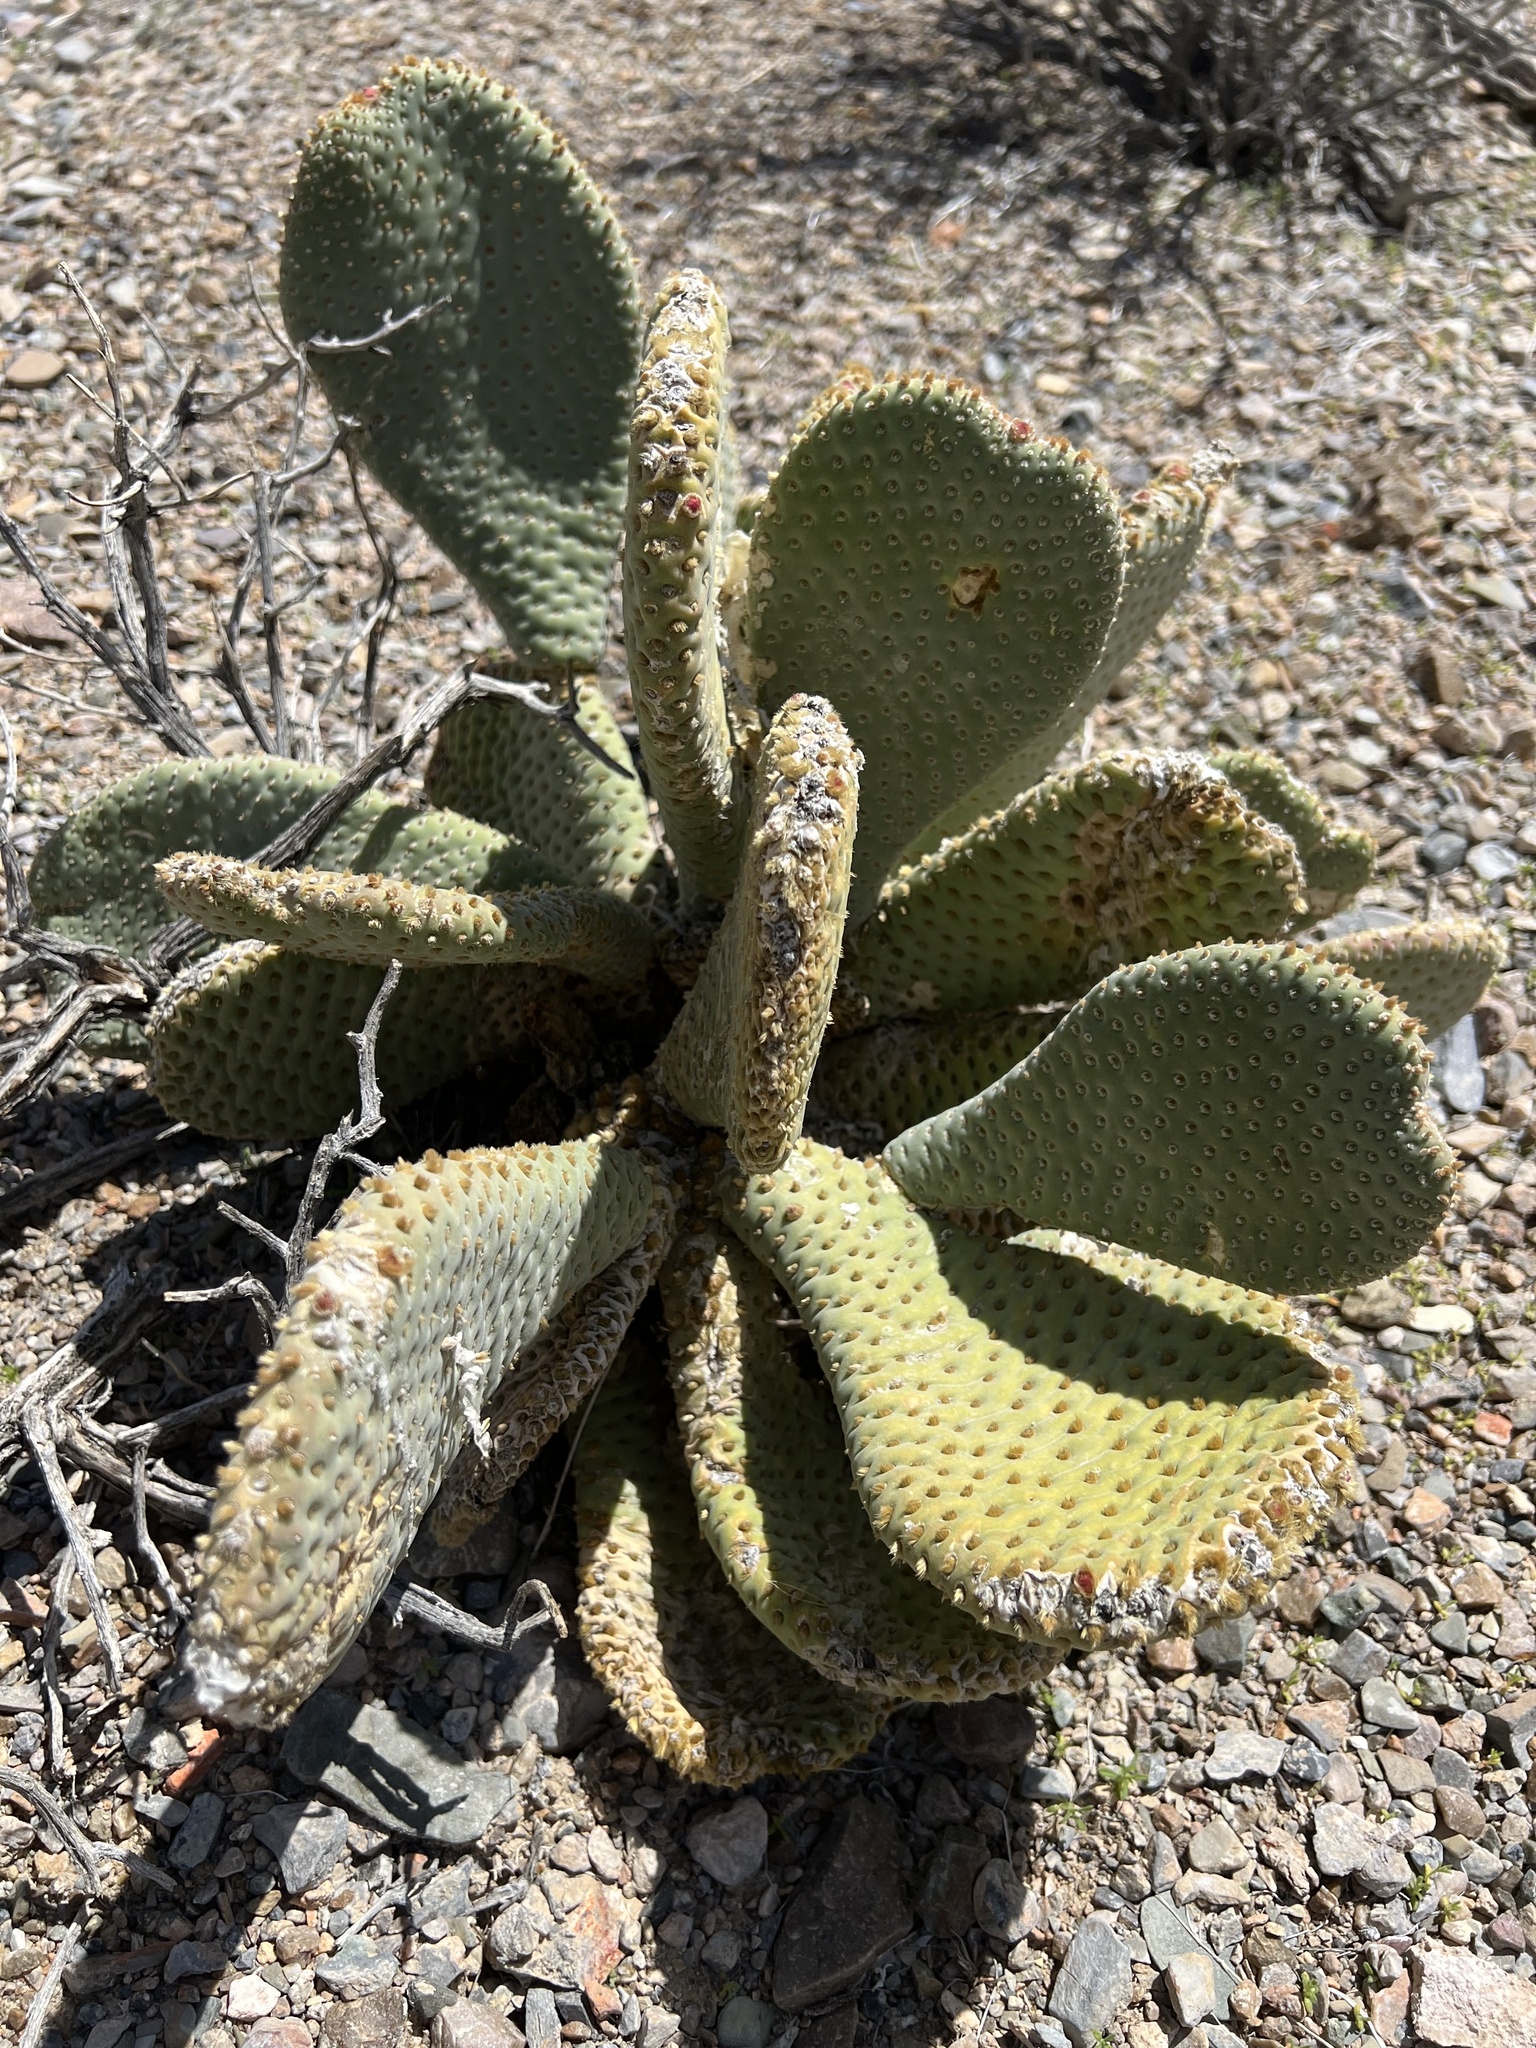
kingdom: Plantae
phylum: Tracheophyta
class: Magnoliopsida
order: Caryophyllales
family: Cactaceae
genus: Opuntia
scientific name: Opuntia basilaris
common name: Beavertail prickly-pear
